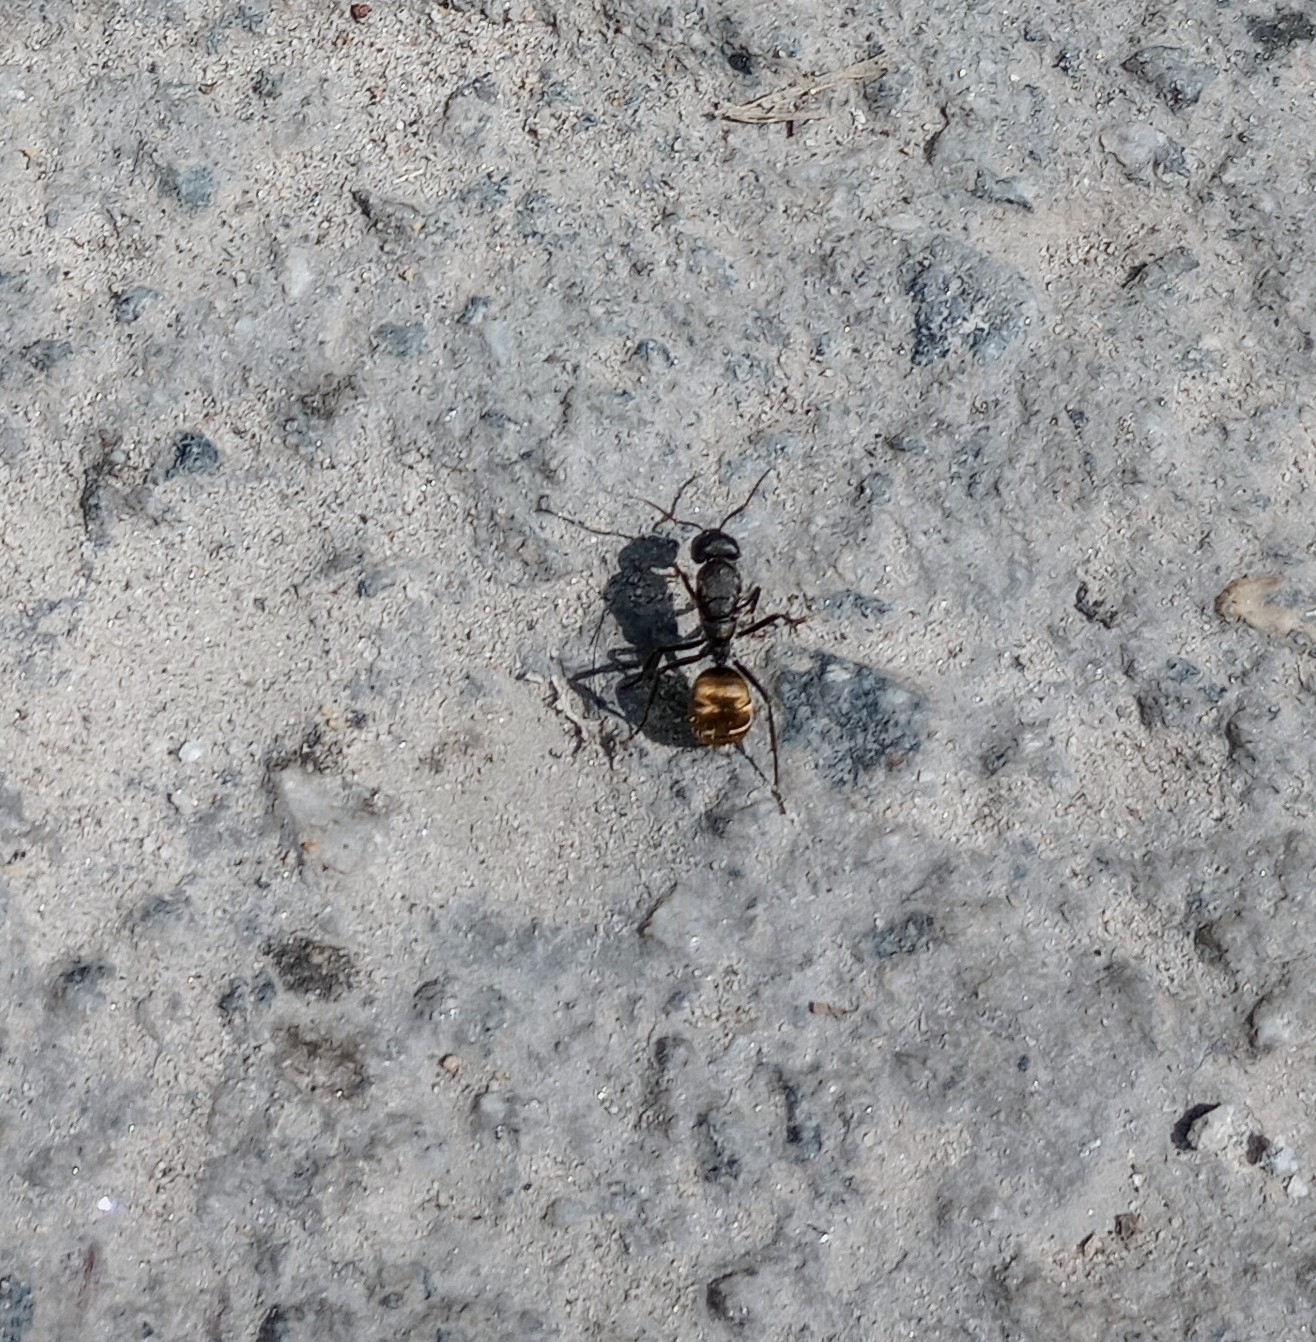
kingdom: Animalia
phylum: Arthropoda
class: Insecta
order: Hymenoptera
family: Formicidae
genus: Camponotus
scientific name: Camponotus sericeus
